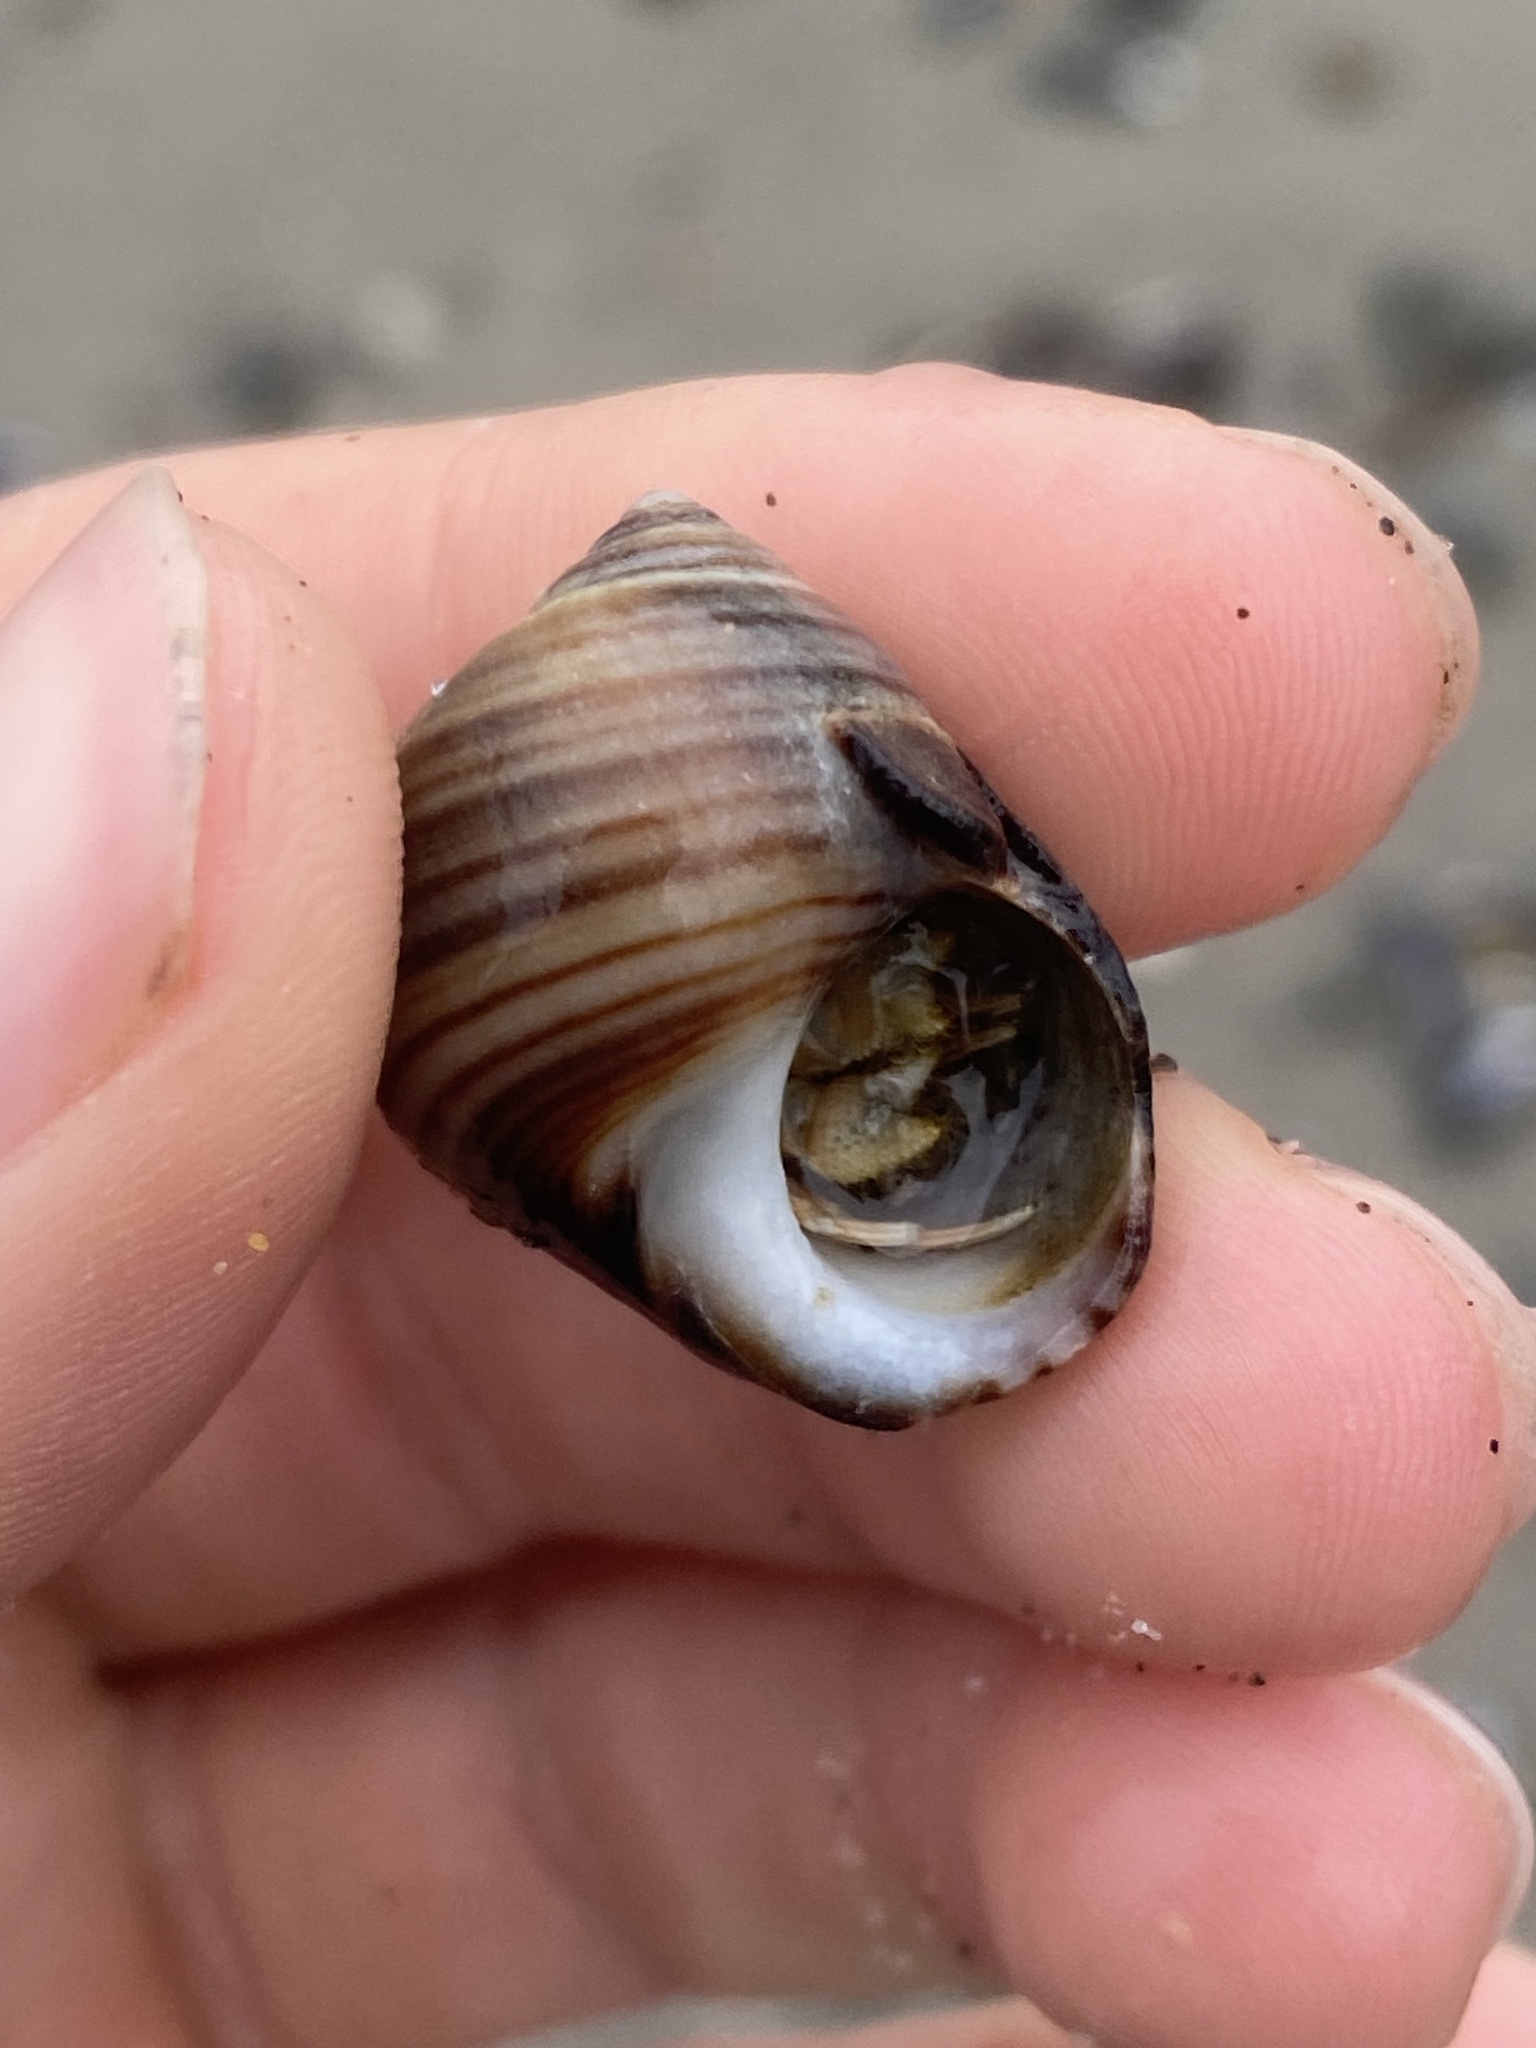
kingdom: Animalia
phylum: Arthropoda
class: Malacostraca
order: Decapoda
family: Diogenidae
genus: Isocheles
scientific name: Isocheles pilosus
